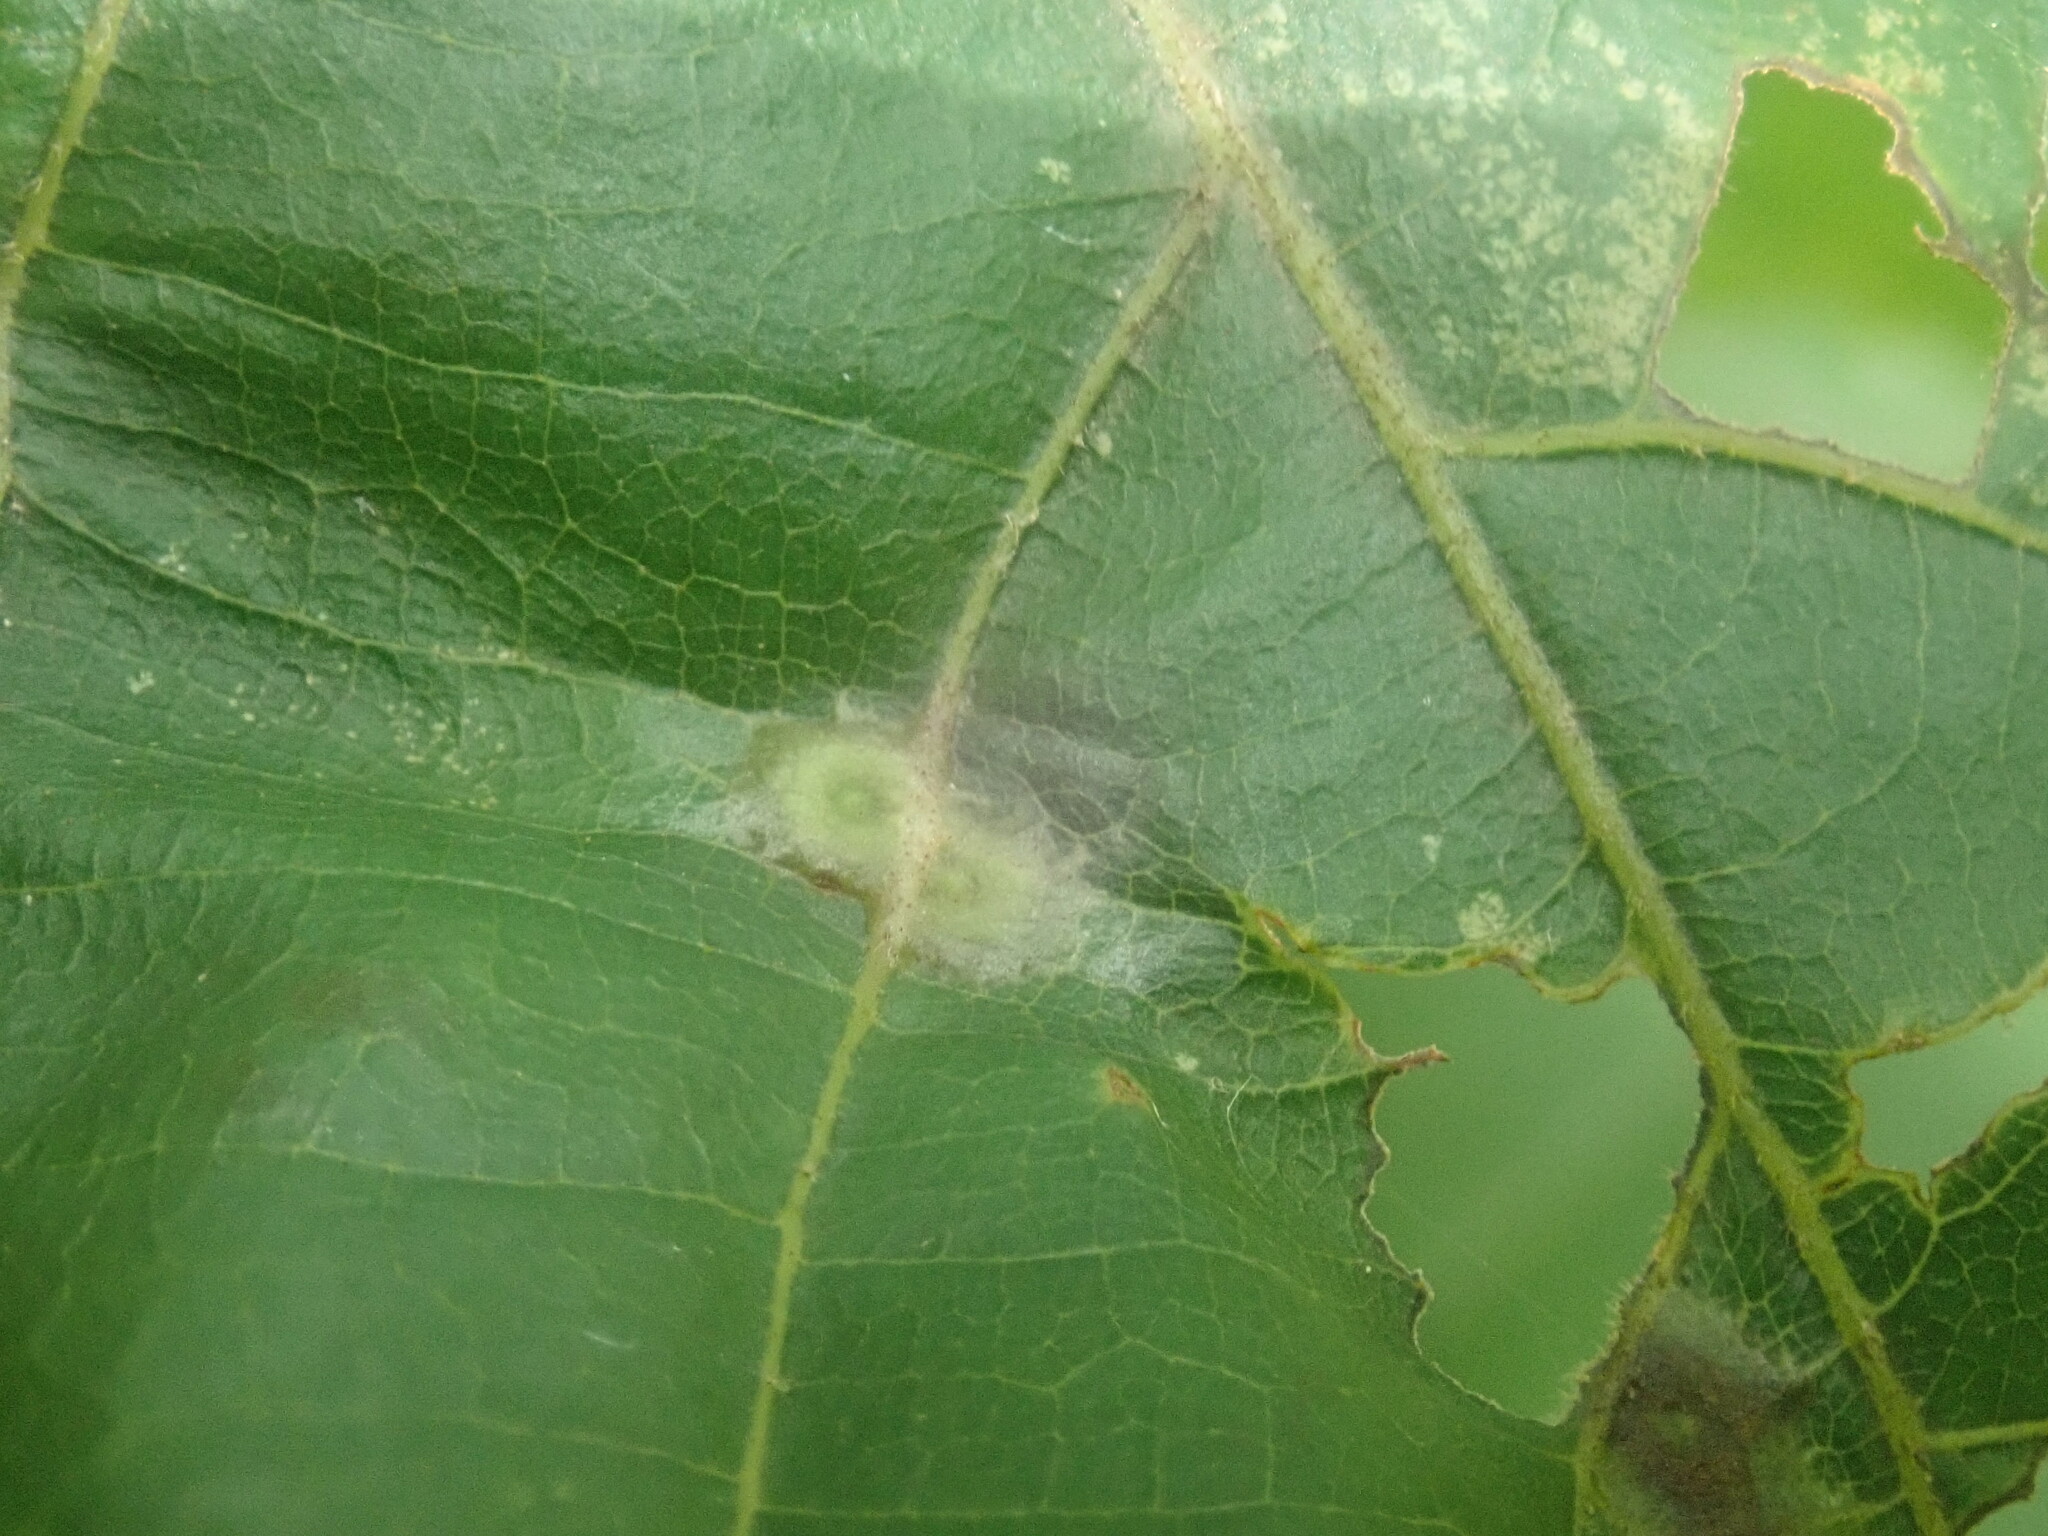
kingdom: Animalia
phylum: Arthropoda
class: Insecta
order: Diptera
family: Cecidomyiidae
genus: Caryomyia
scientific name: Caryomyia striolacrustum
